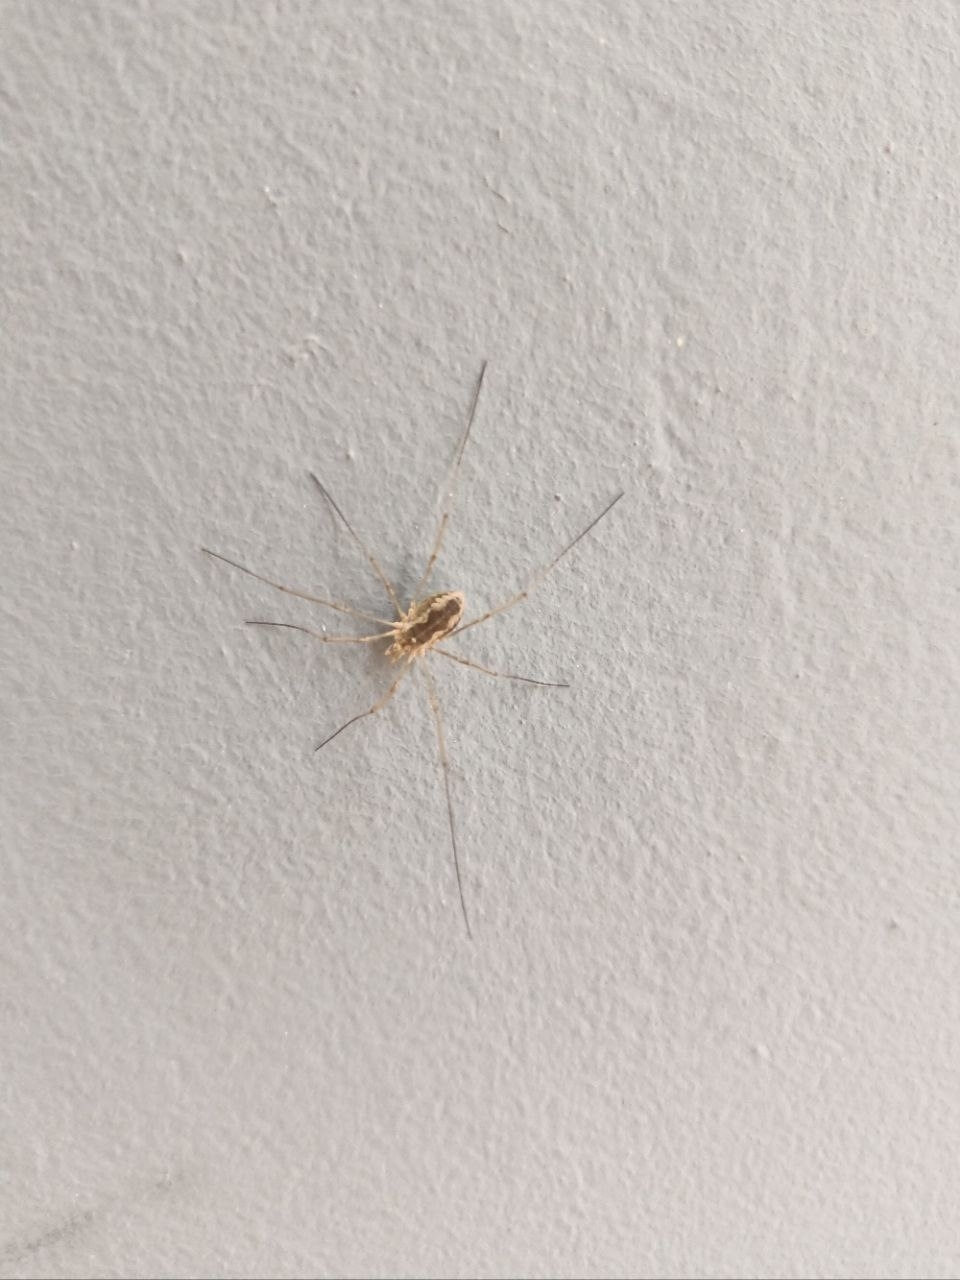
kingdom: Animalia
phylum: Arthropoda
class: Arachnida
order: Opiliones
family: Phalangiidae
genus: Phalangium
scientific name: Phalangium opilio
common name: Daddy longleg
